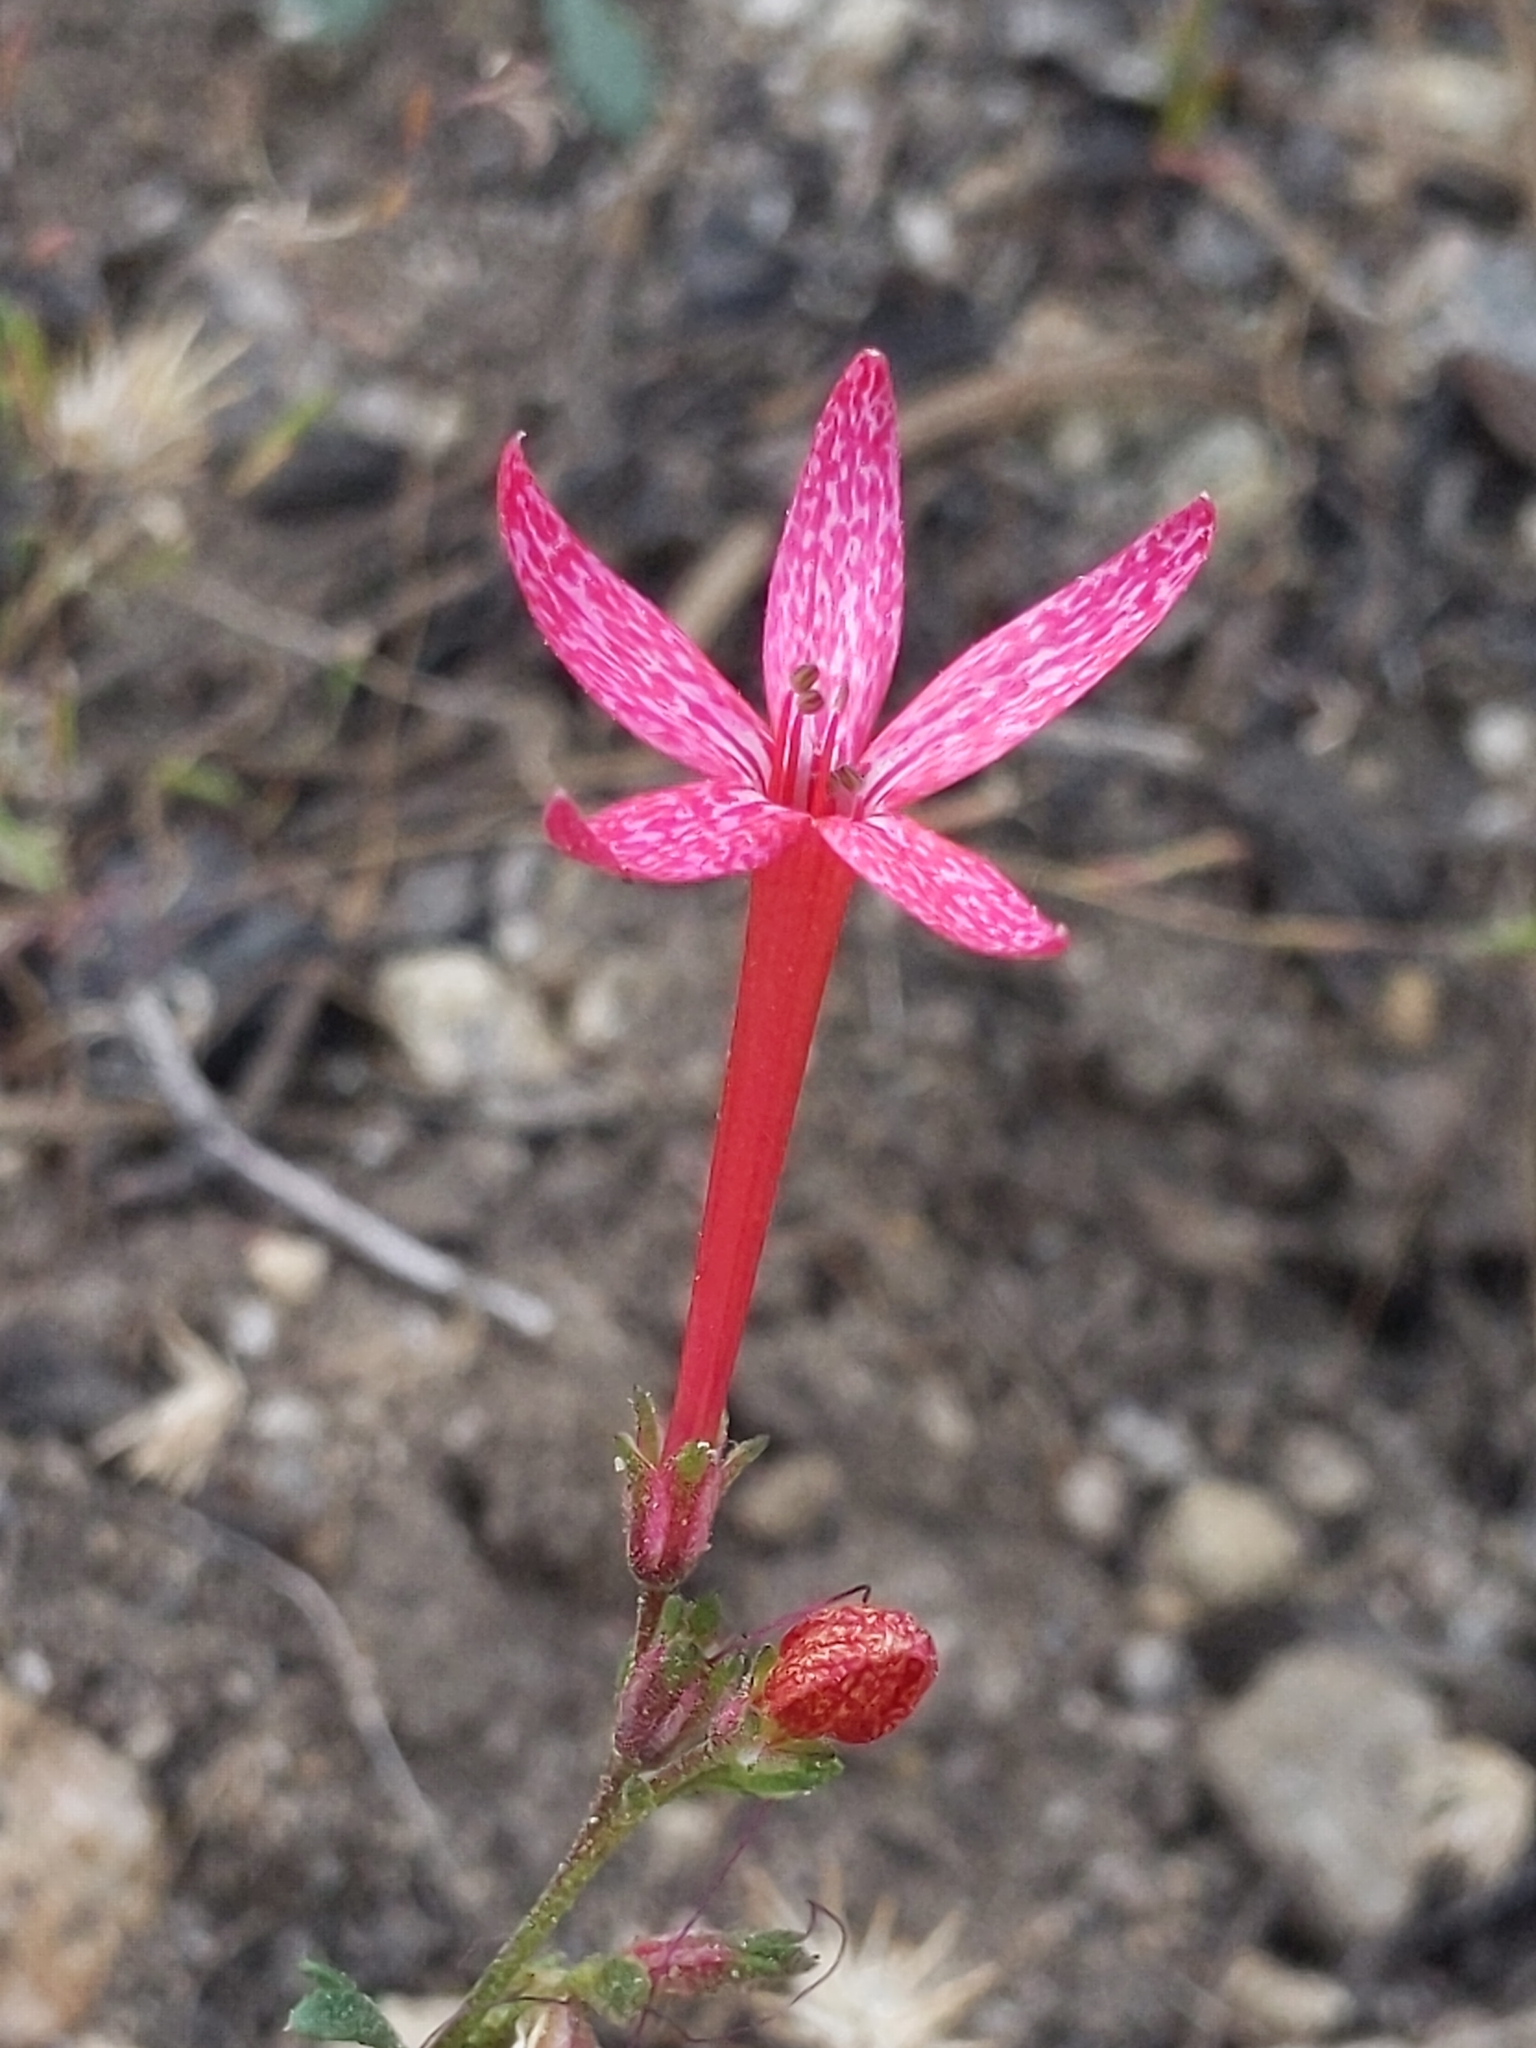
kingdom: Plantae
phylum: Tracheophyta
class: Magnoliopsida
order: Ericales
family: Polemoniaceae
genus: Ipomopsis
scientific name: Ipomopsis aggregata
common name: Scarlet gilia
